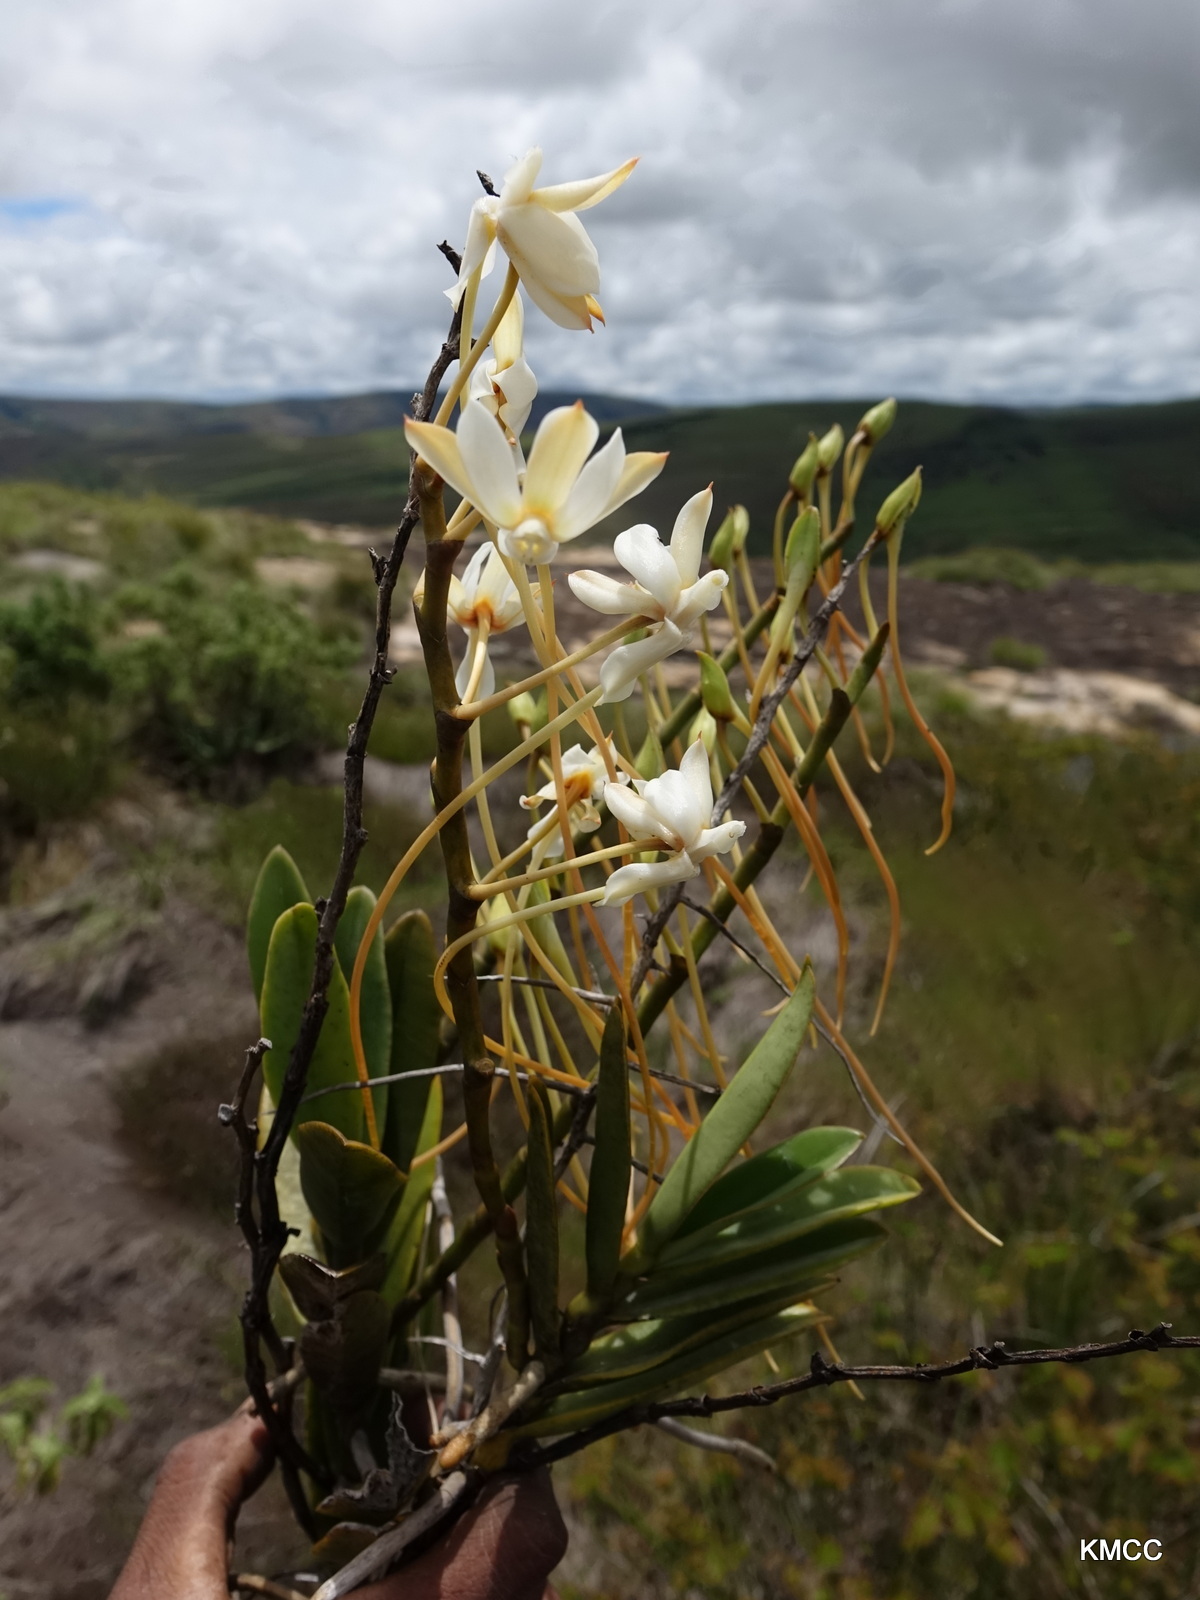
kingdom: Plantae
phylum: Tracheophyta
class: Liliopsida
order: Asparagales
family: Orchidaceae
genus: Aerangis
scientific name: Aerangis ellisii
